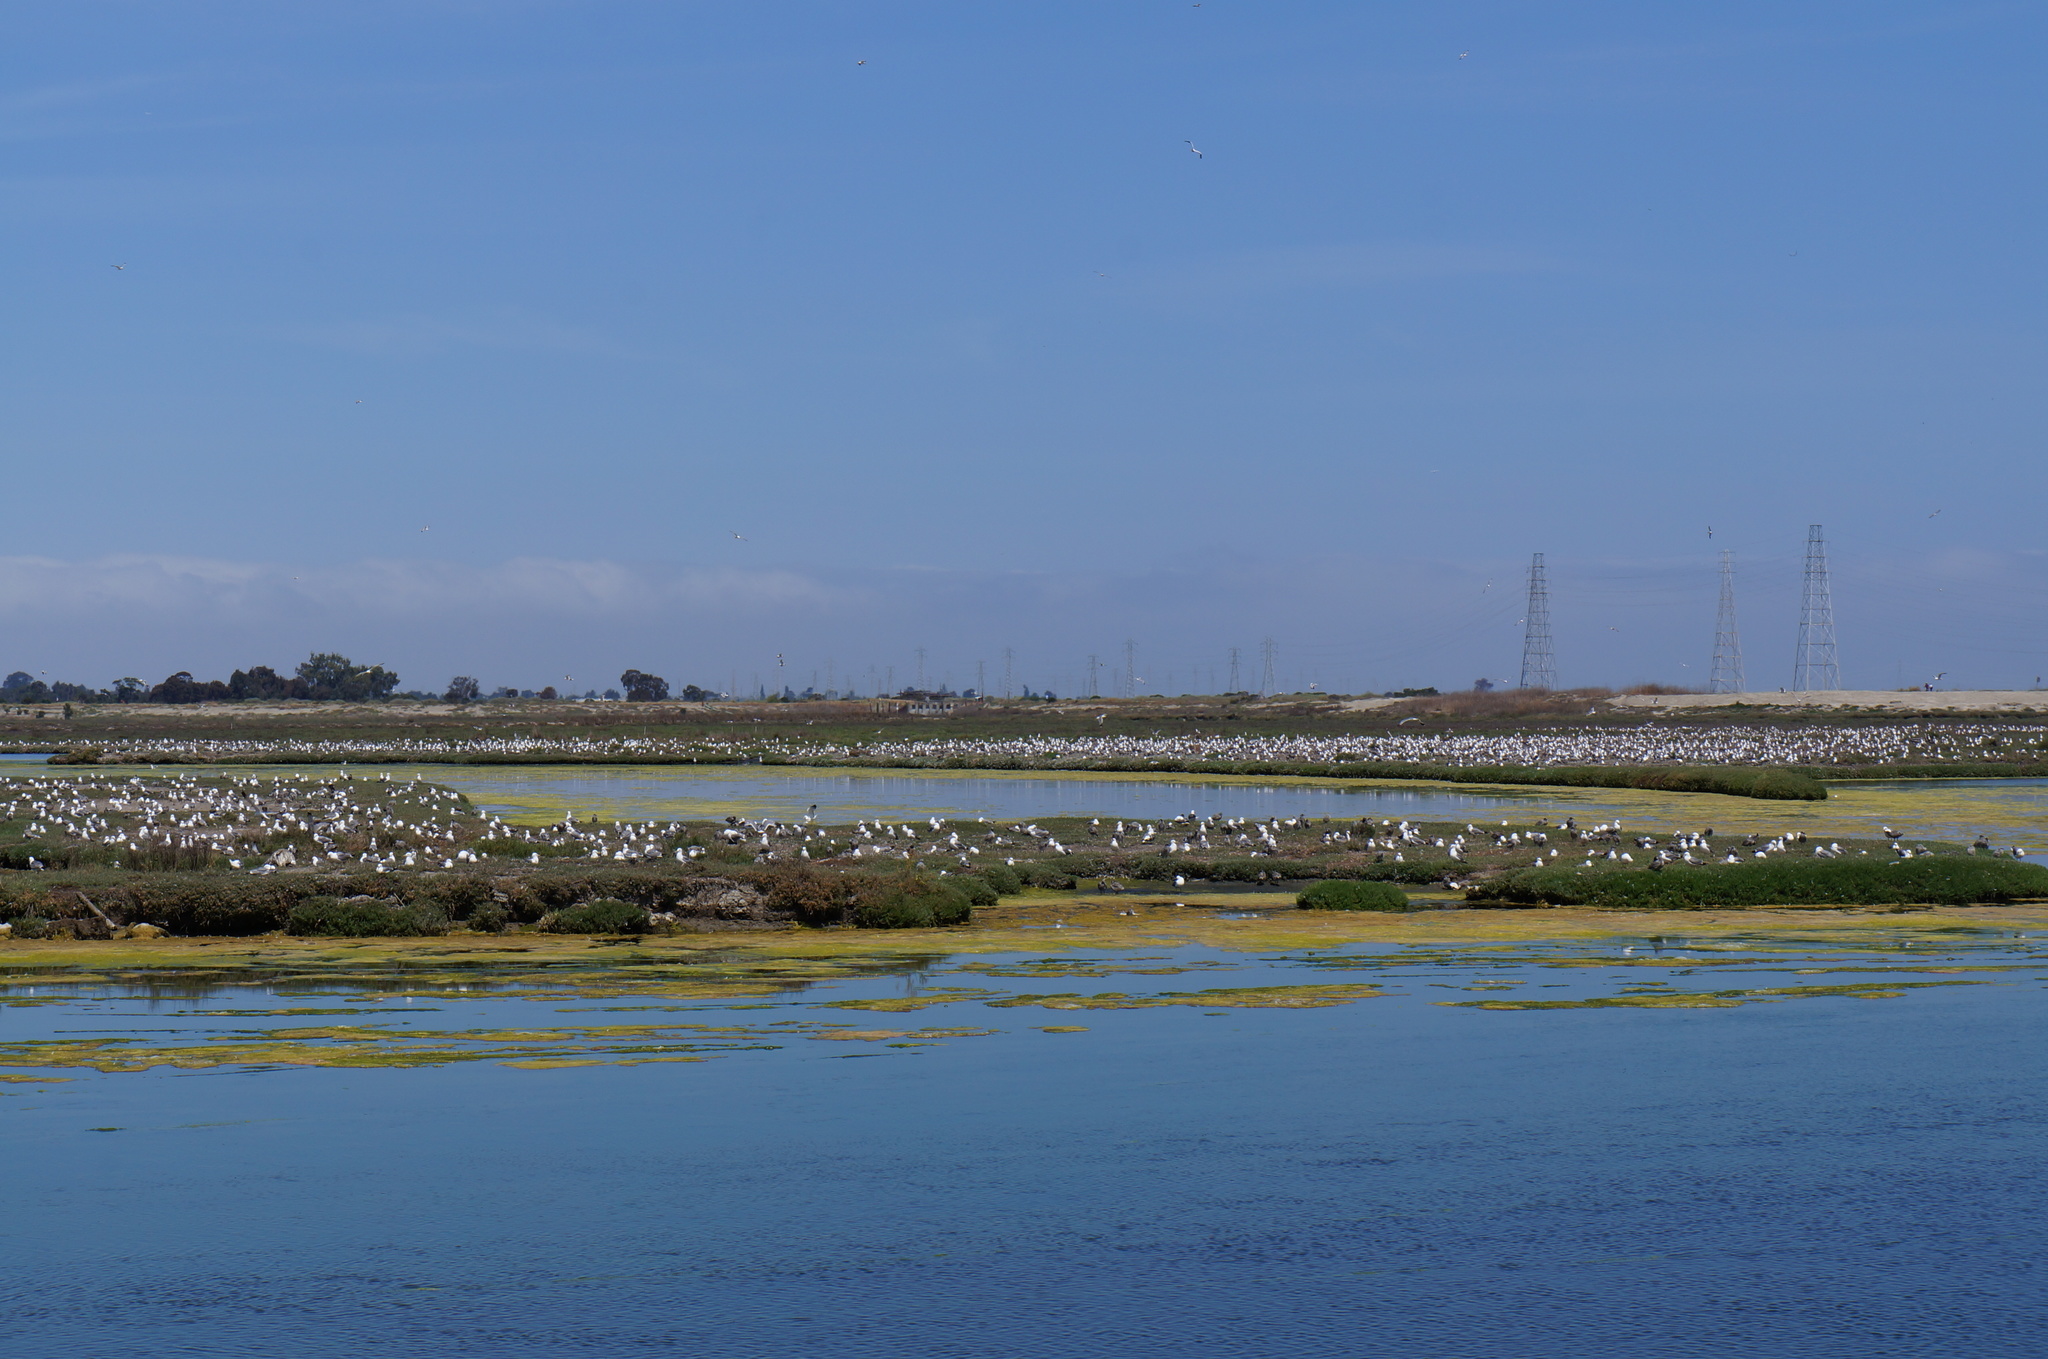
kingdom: Animalia
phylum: Chordata
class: Aves
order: Charadriiformes
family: Laridae
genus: Larus
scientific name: Larus californicus
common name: California gull
